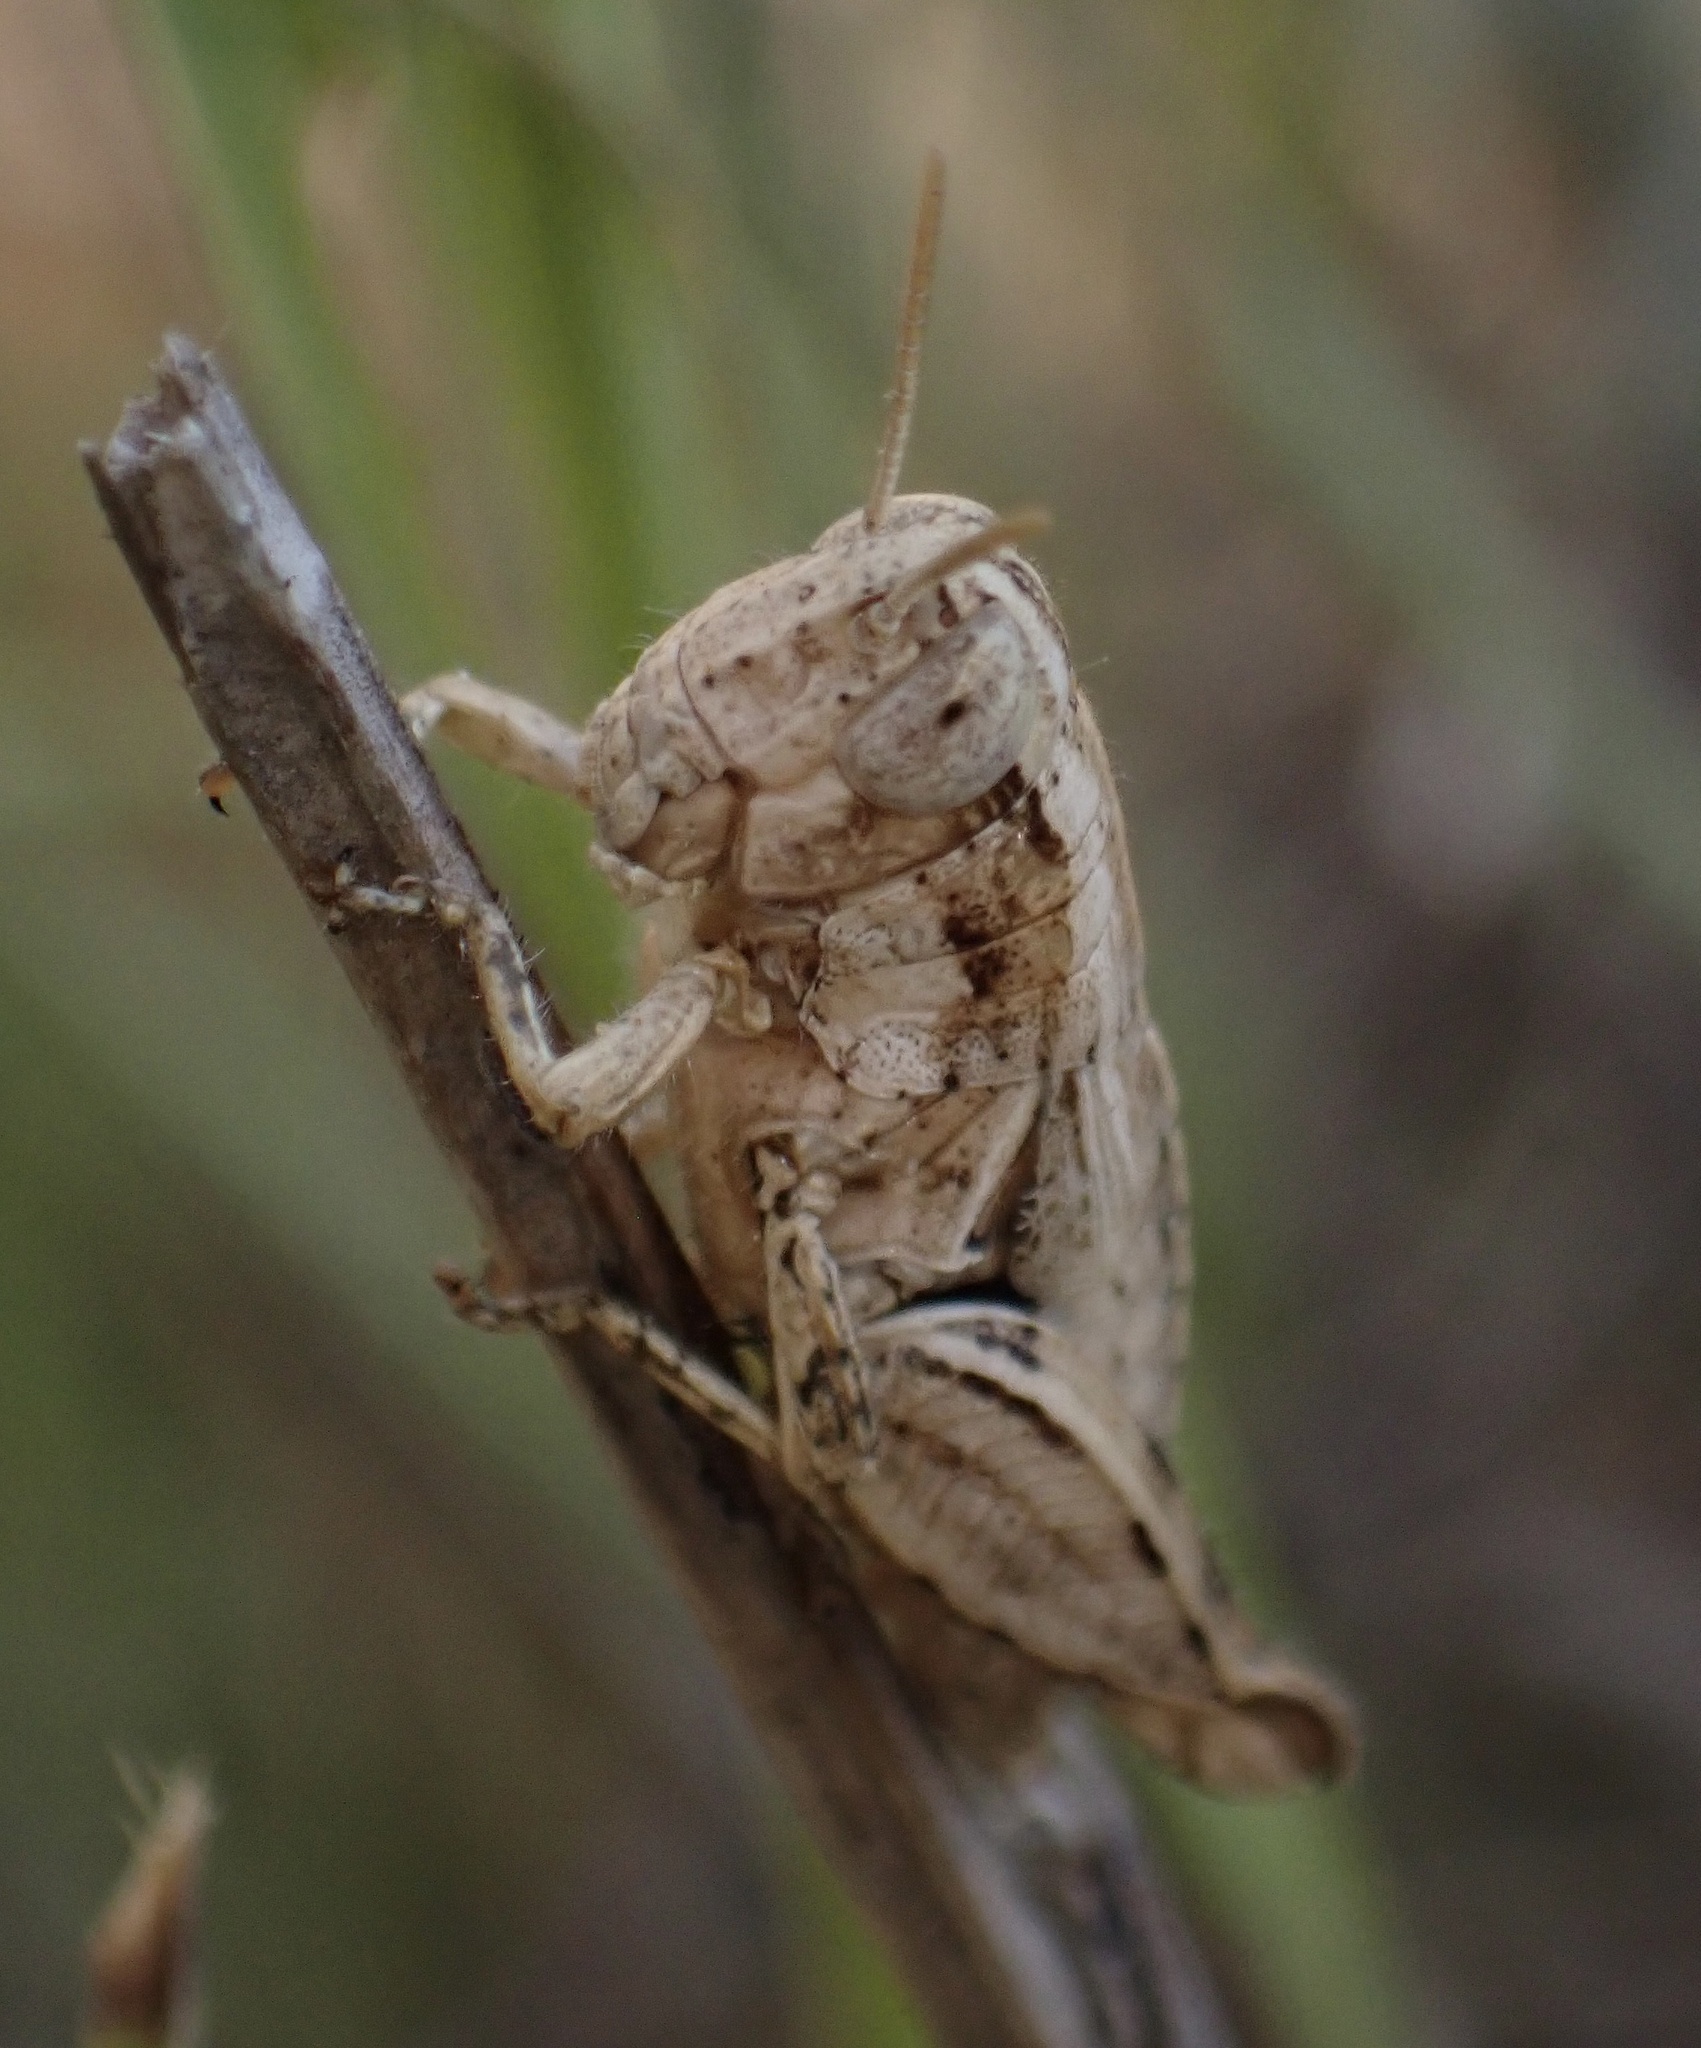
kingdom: Animalia
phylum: Arthropoda
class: Insecta
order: Orthoptera
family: Acrididae
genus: Pezotettix
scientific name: Pezotettix giornae
